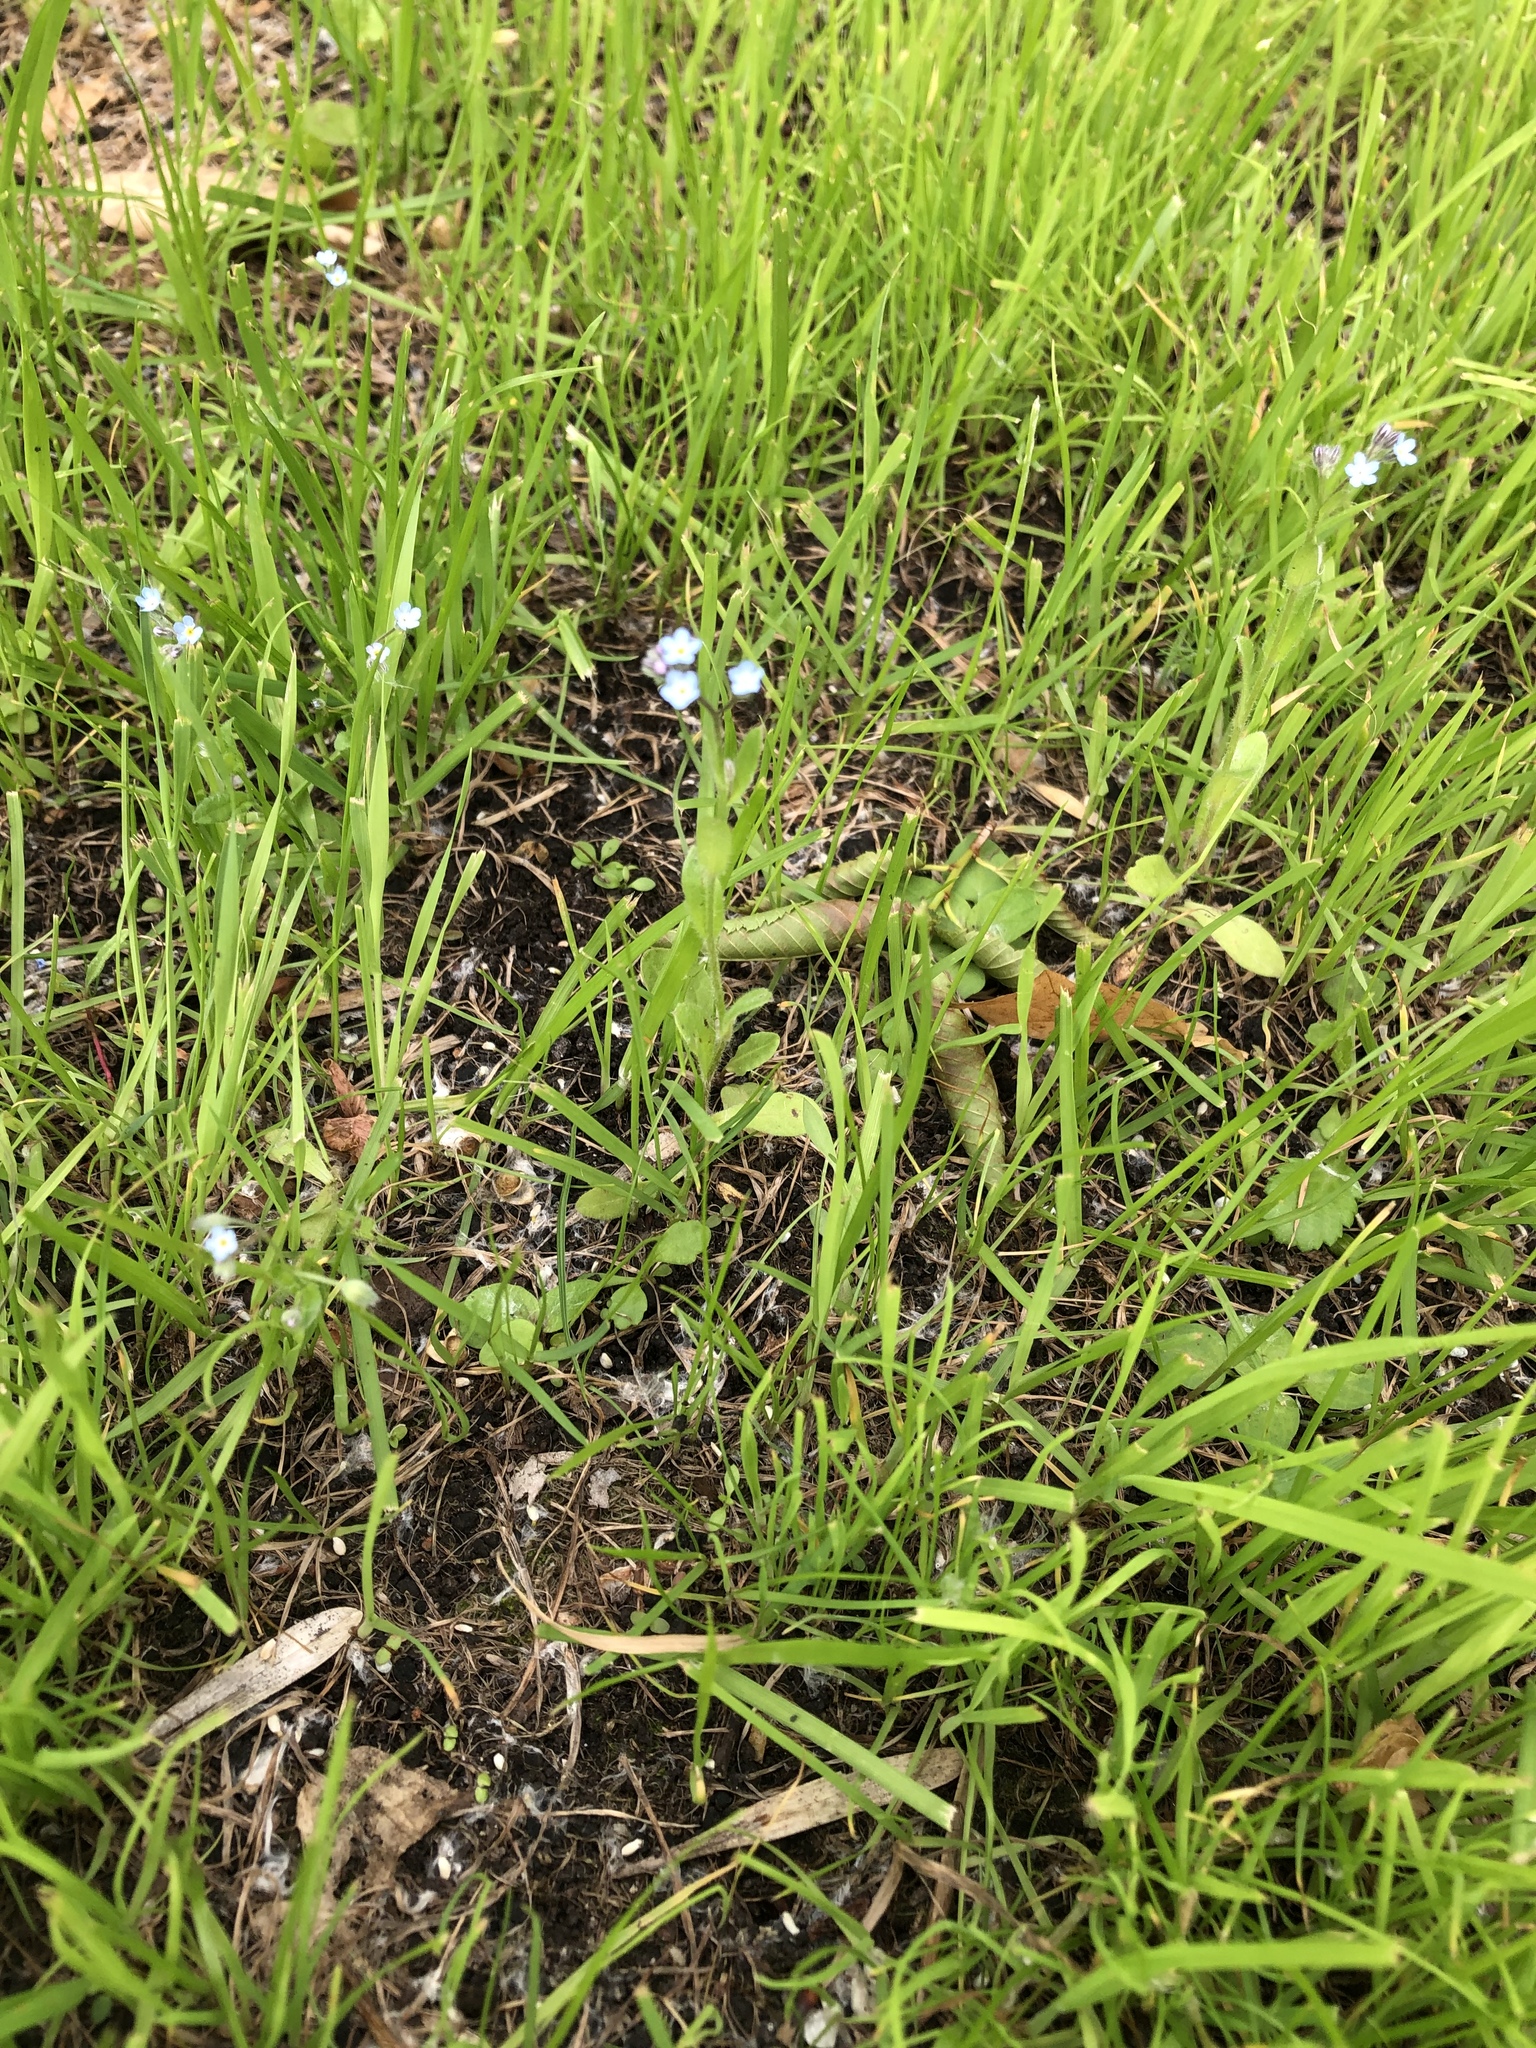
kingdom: Plantae
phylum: Tracheophyta
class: Magnoliopsida
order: Boraginales
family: Boraginaceae
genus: Myosotis
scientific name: Myosotis arvensis
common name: Field forget-me-not
